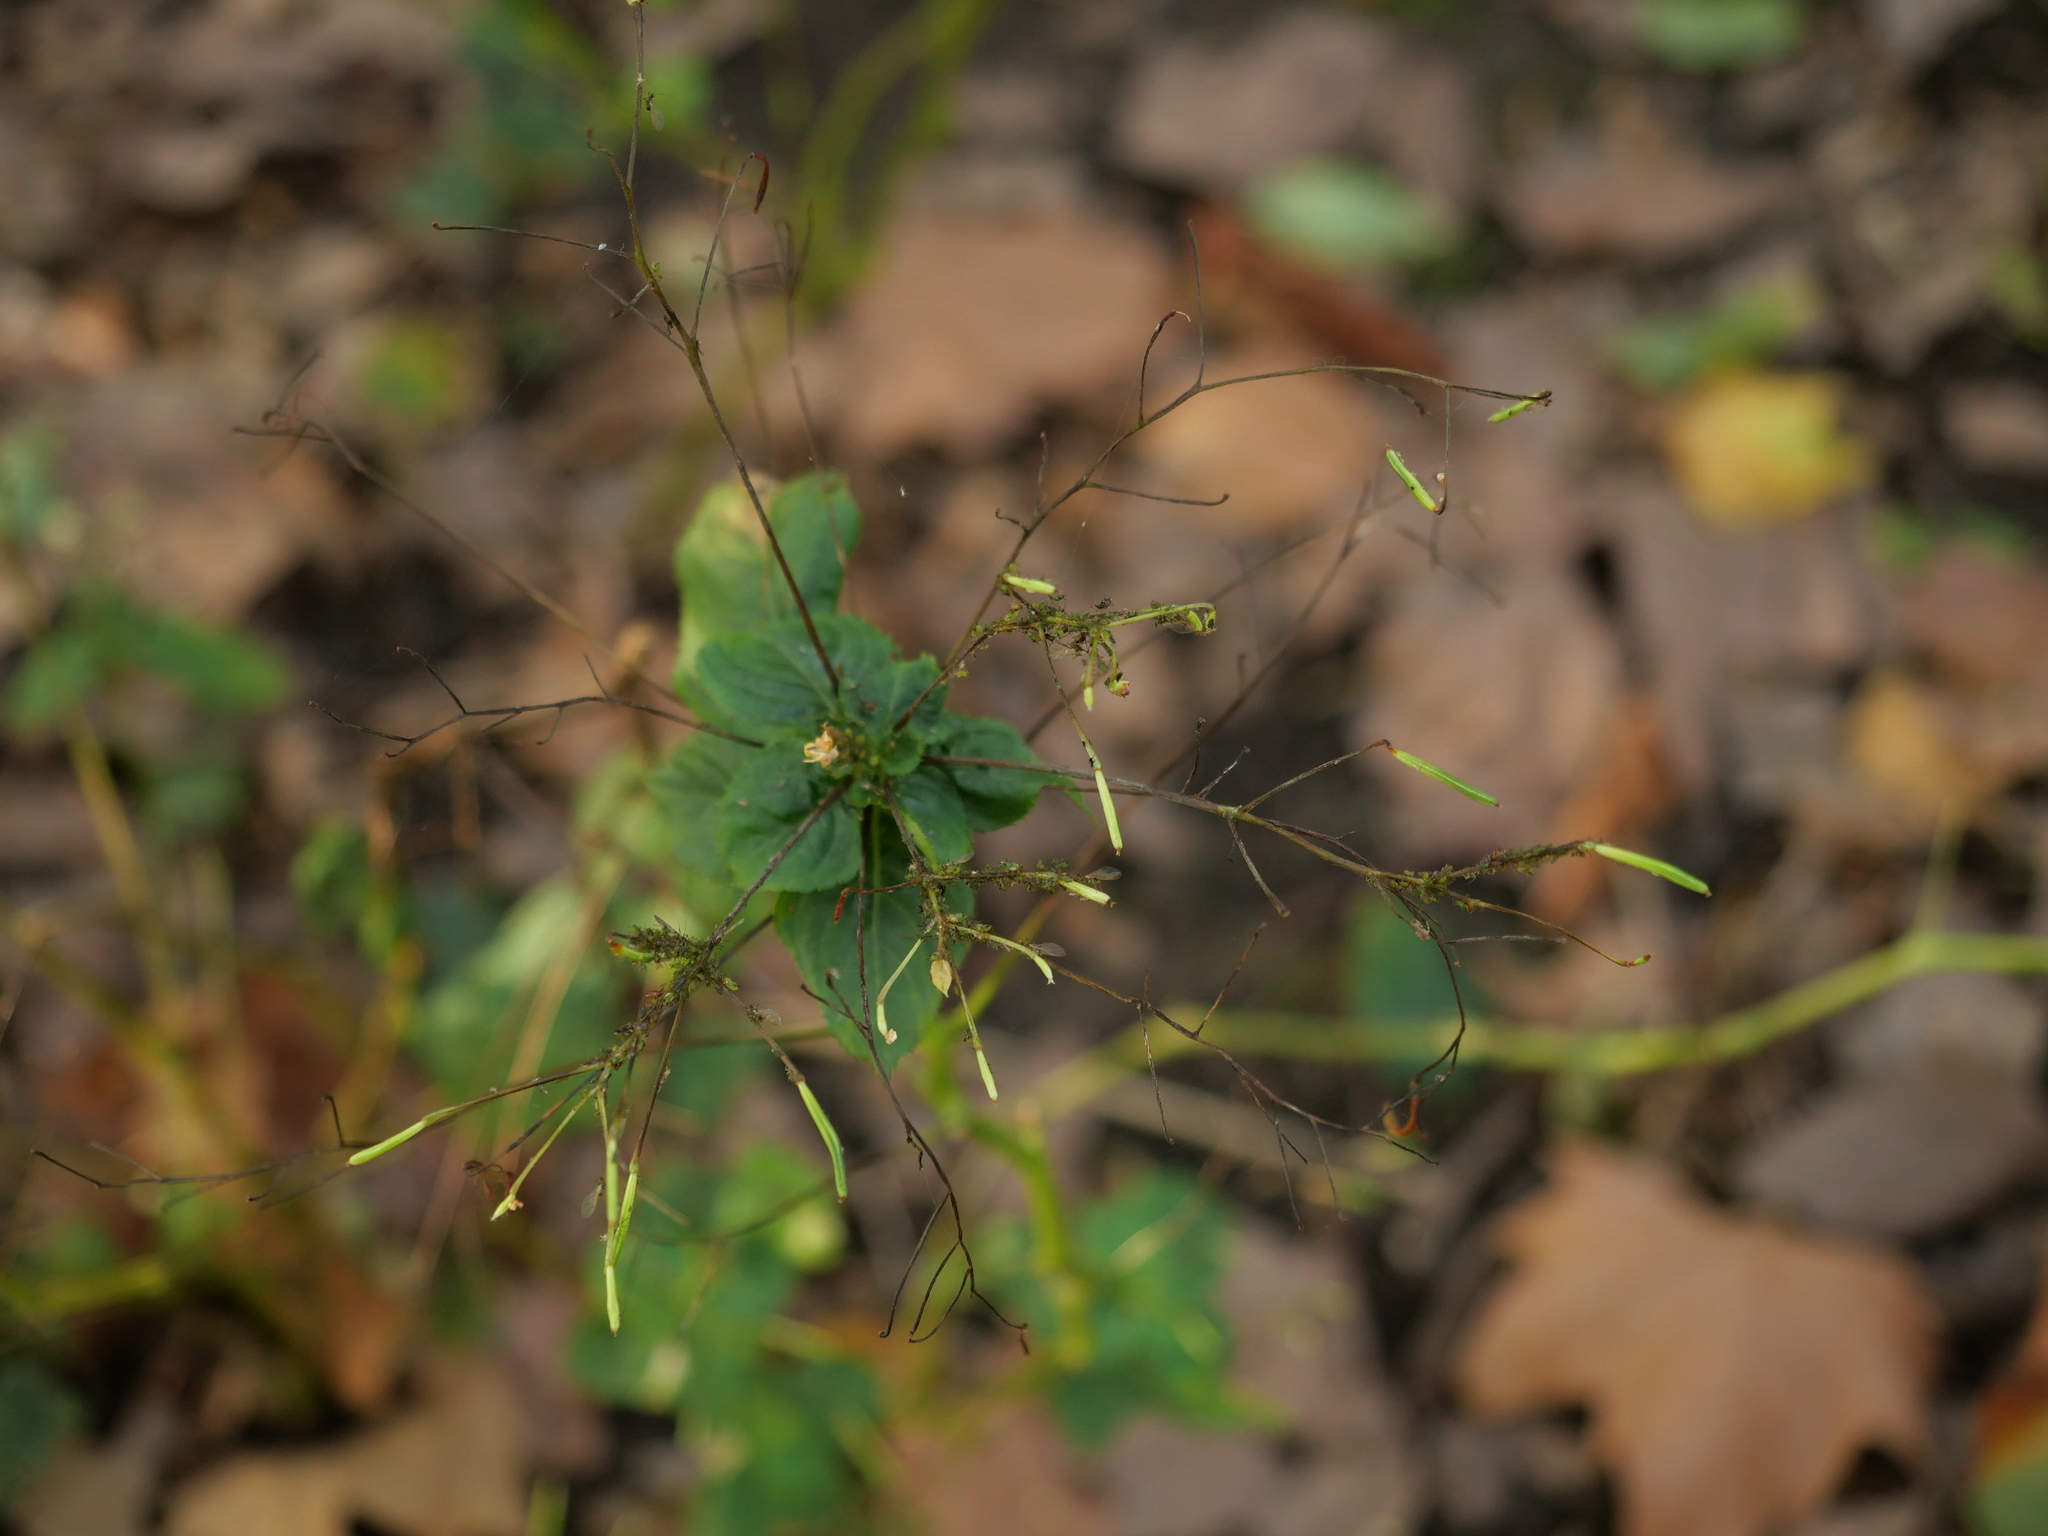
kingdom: Plantae
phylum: Tracheophyta
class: Magnoliopsida
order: Ericales
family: Balsaminaceae
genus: Impatiens
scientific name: Impatiens parviflora
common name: Small balsam
